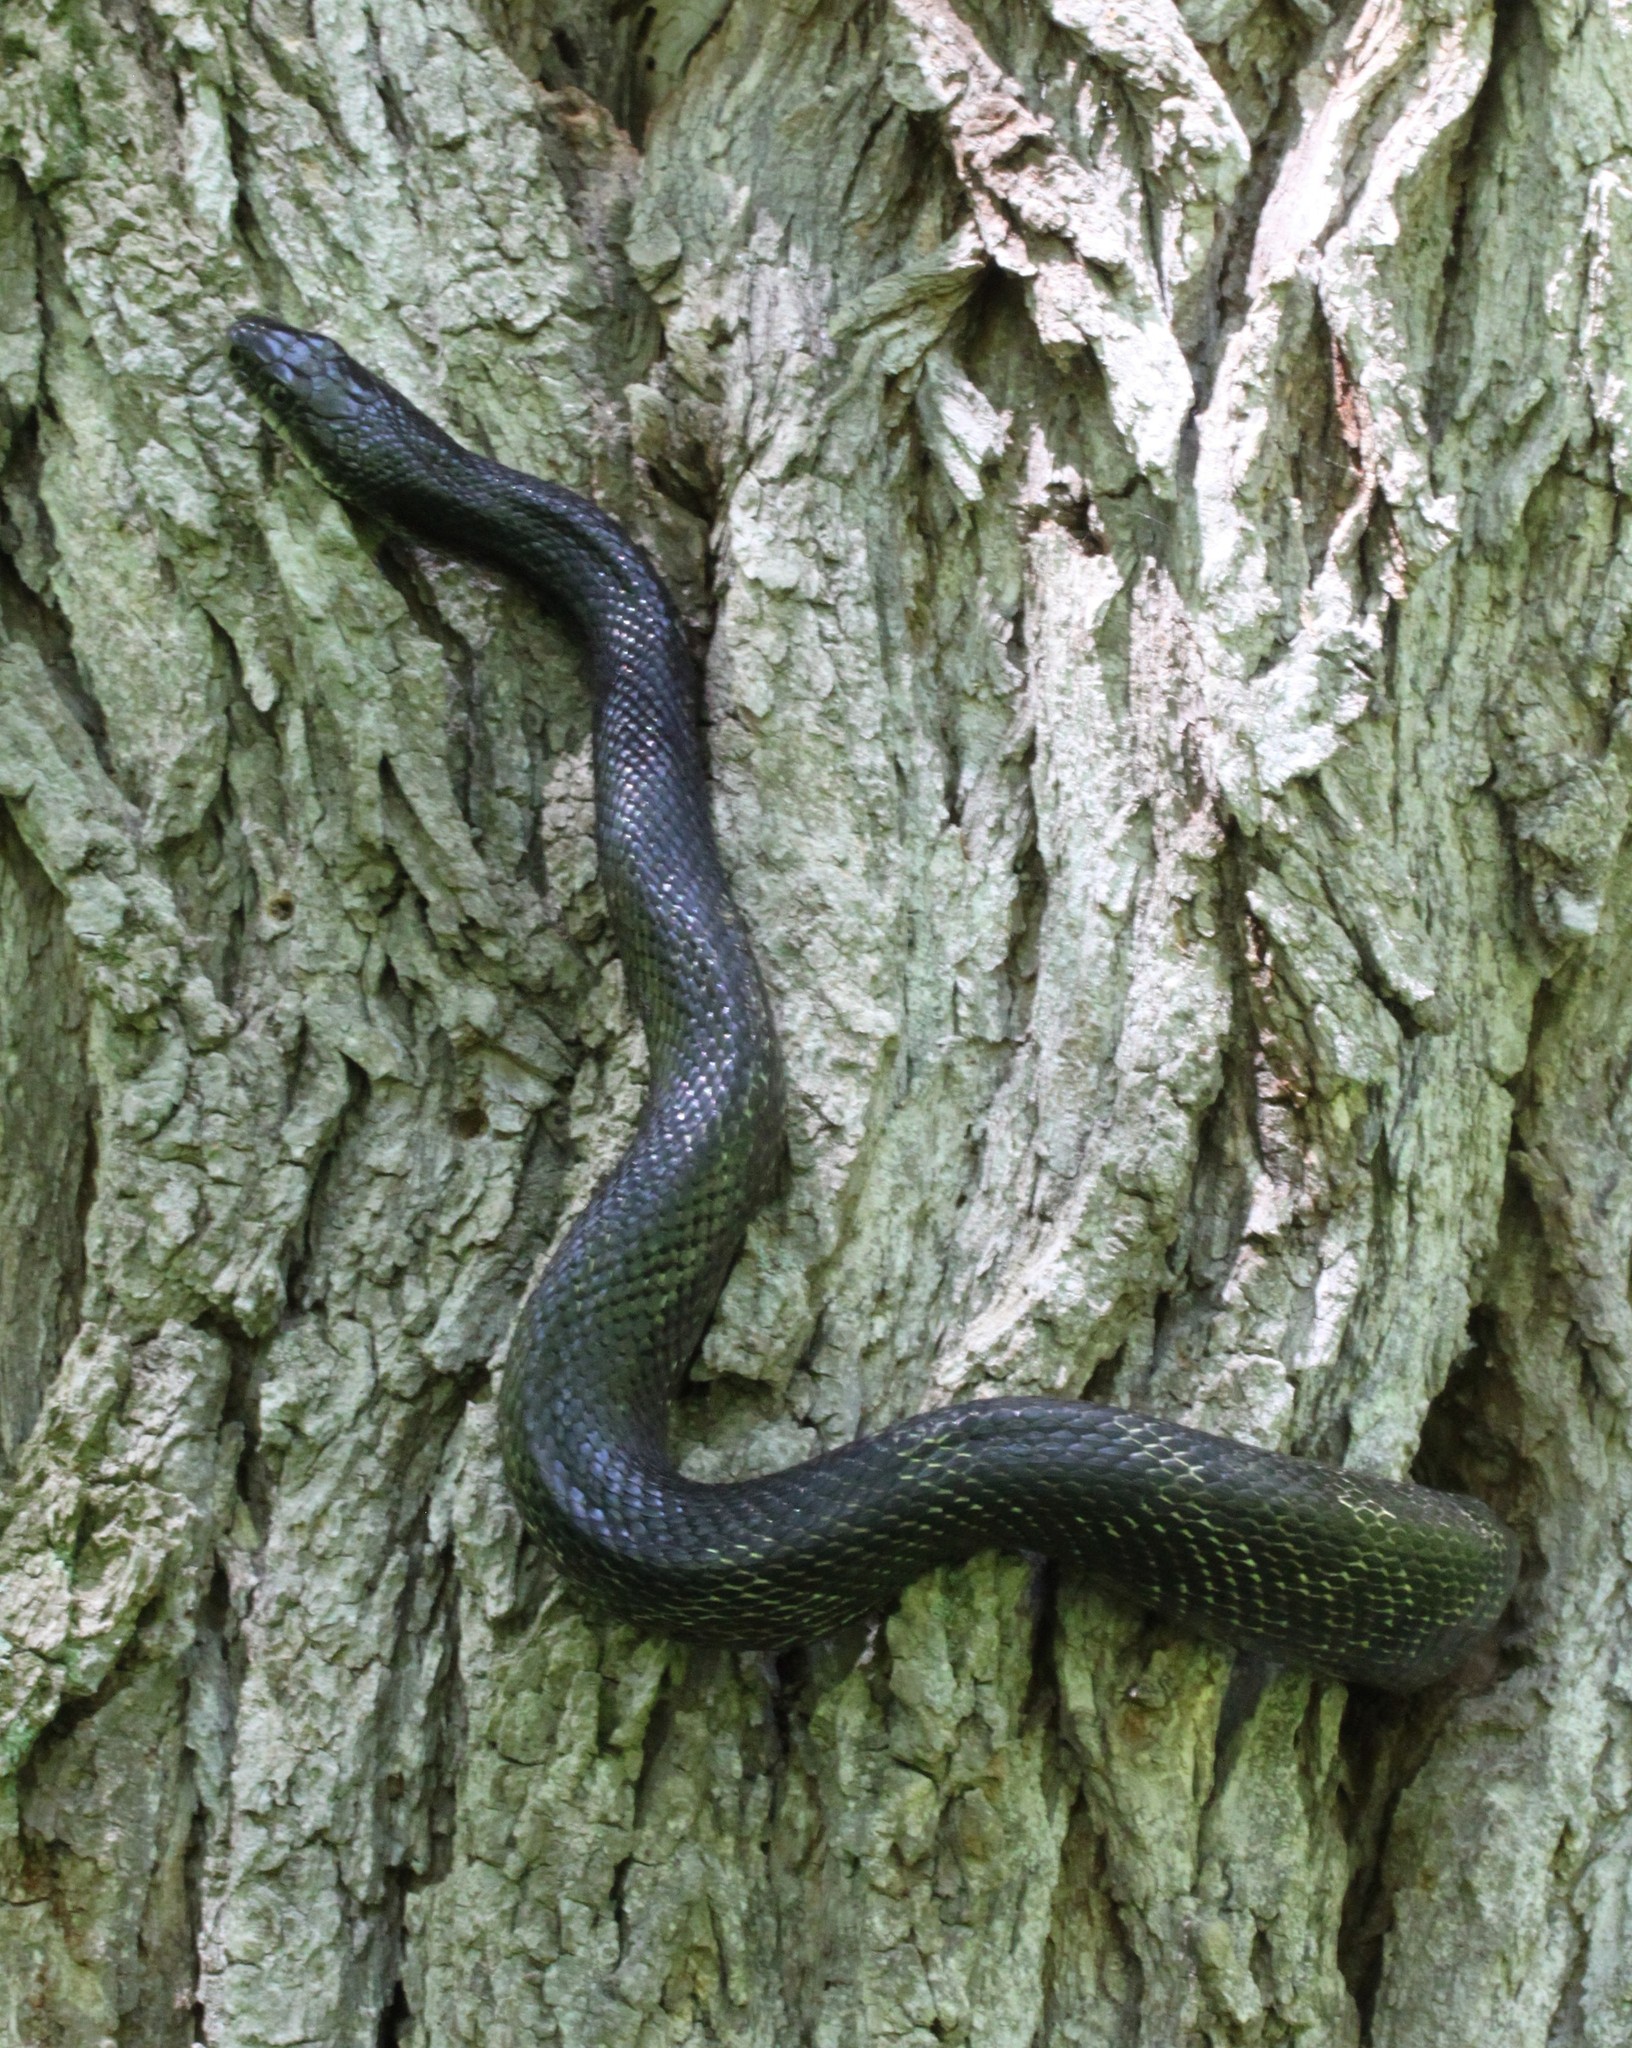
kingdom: Animalia
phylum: Chordata
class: Squamata
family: Colubridae
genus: Pantherophis
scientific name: Pantherophis spiloides
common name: Gray rat snake
